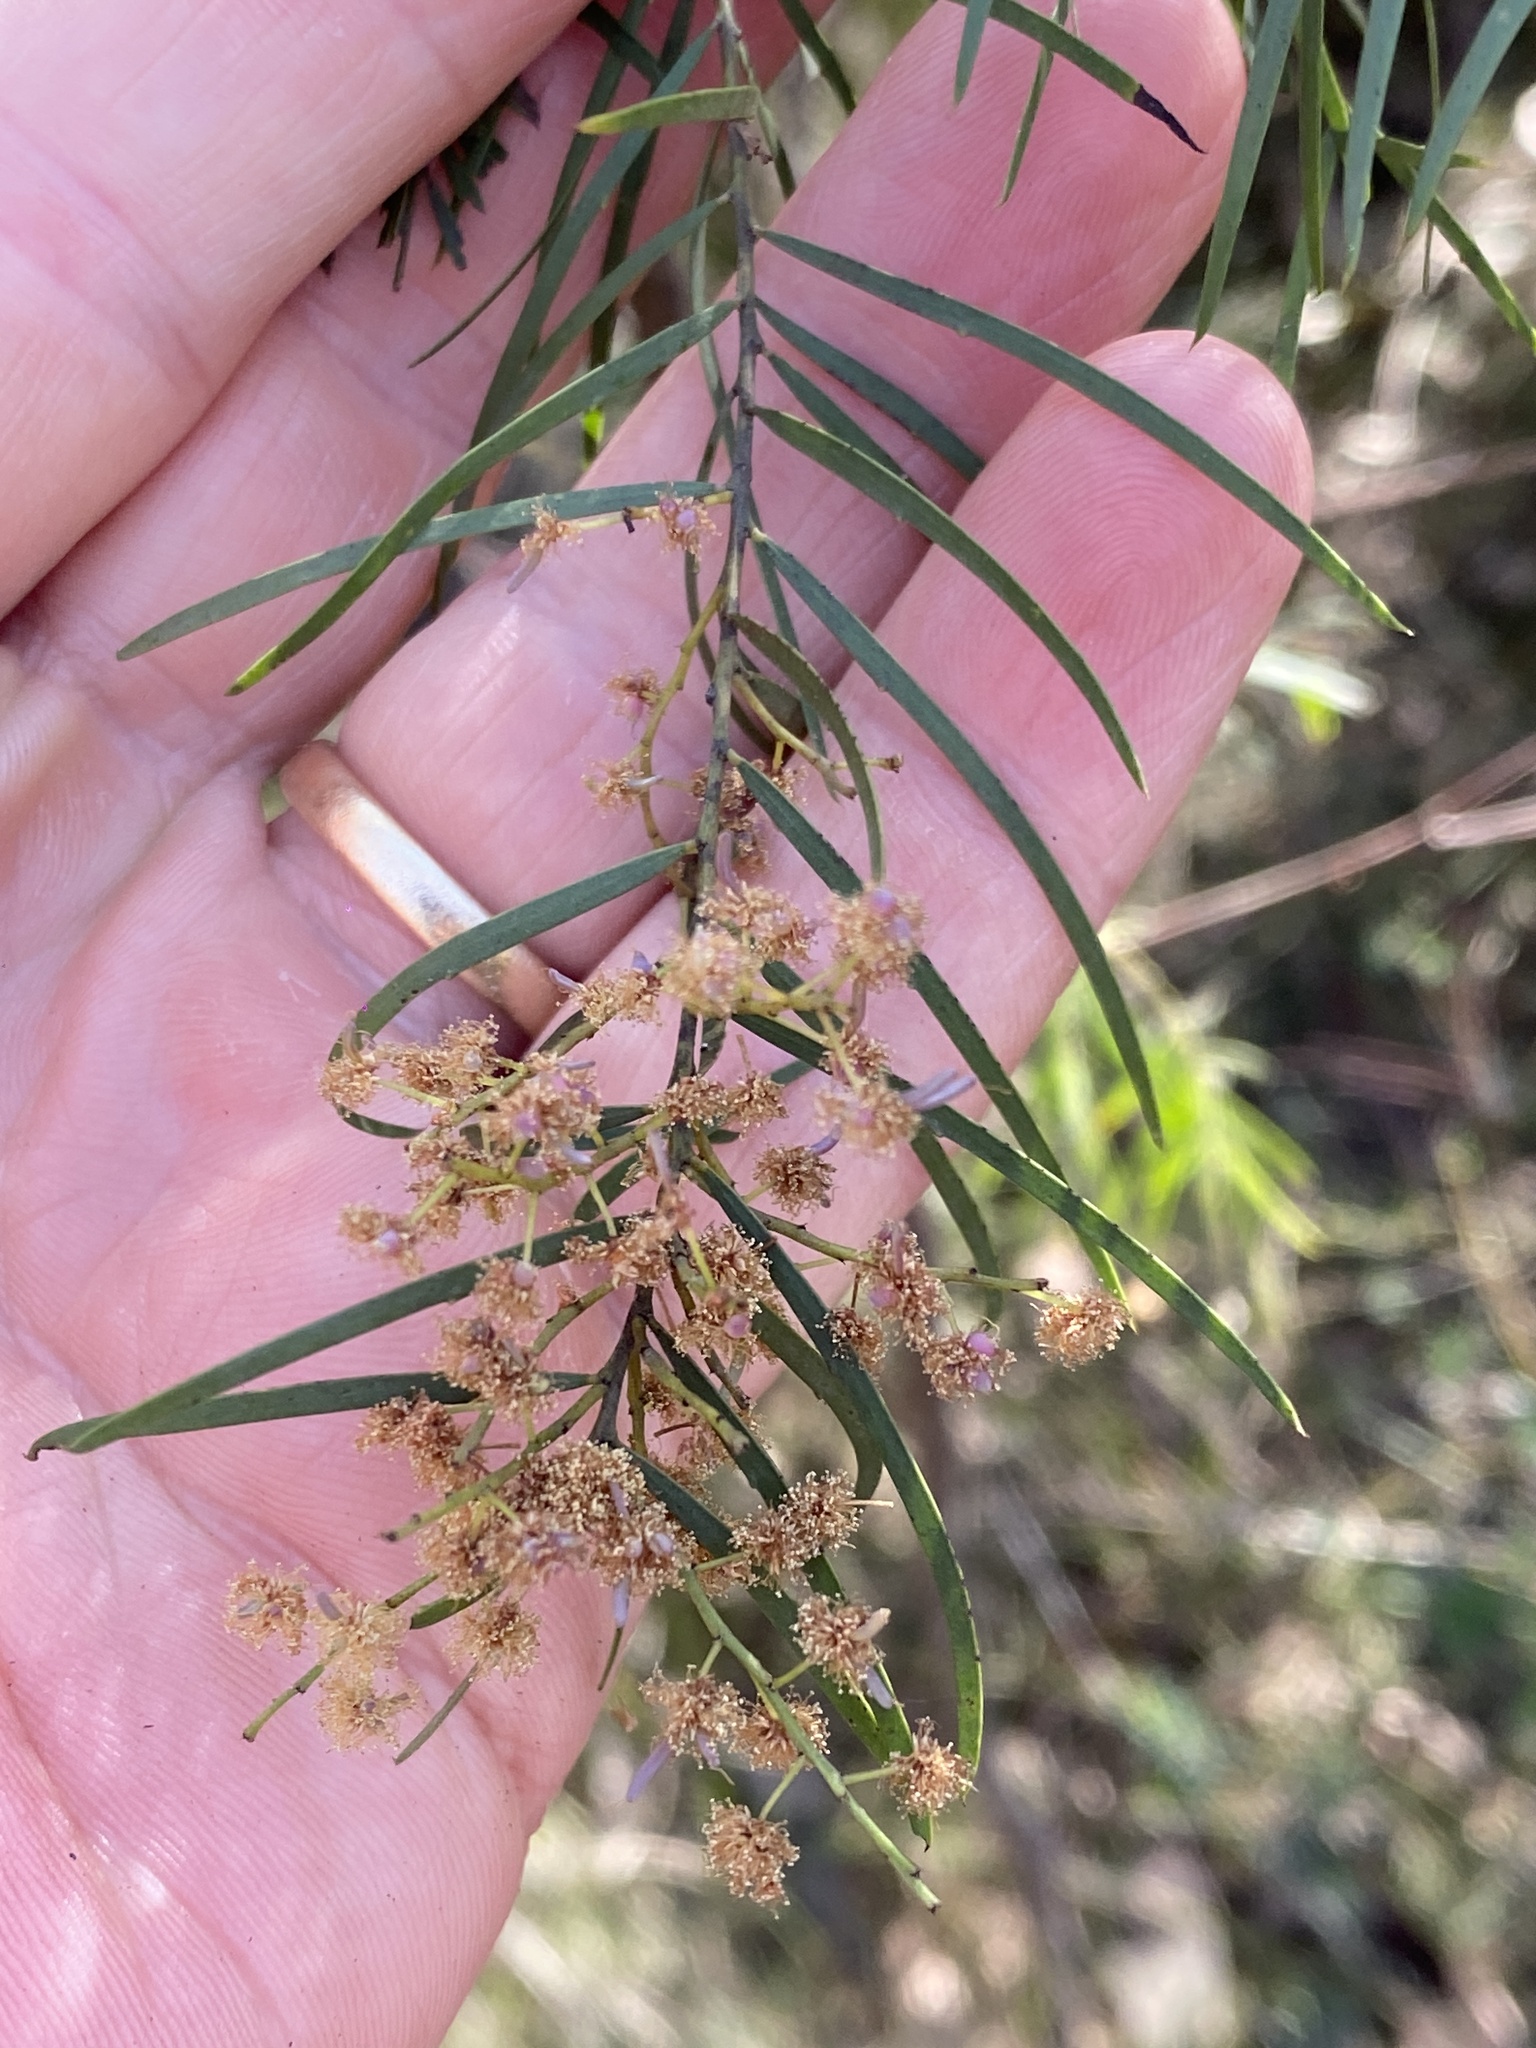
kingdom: Plantae
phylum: Tracheophyta
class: Magnoliopsida
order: Fabales
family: Fabaceae
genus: Acacia
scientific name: Acacia fimbriata
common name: Brisbane golden wattle
